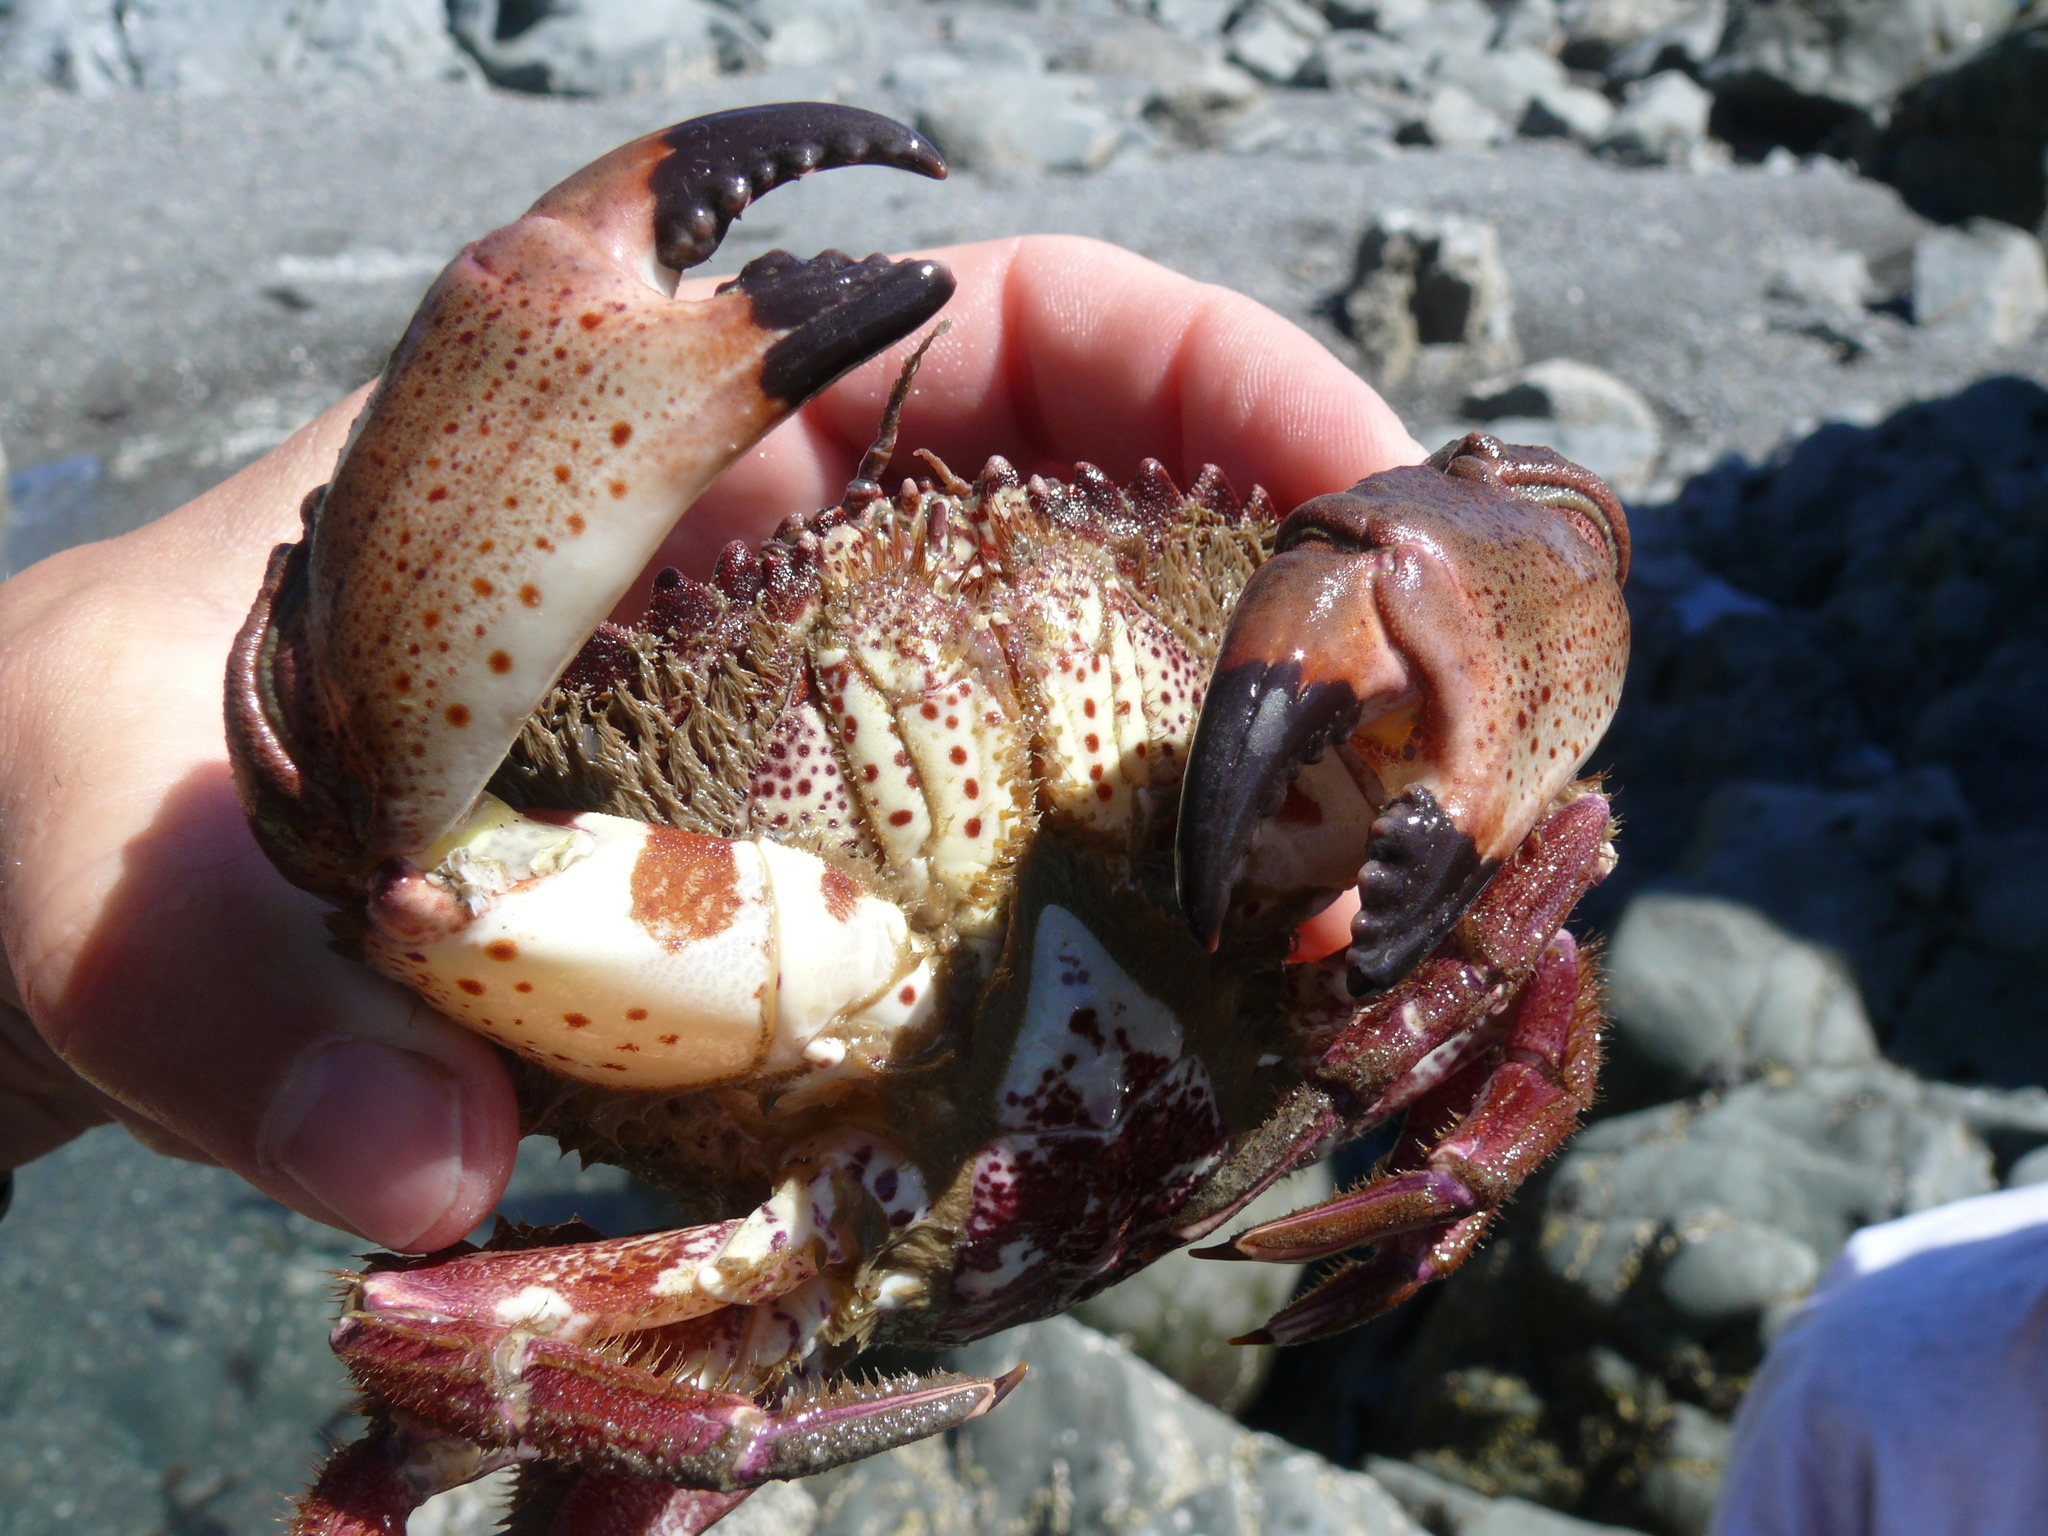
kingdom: Animalia
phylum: Arthropoda
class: Malacostraca
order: Decapoda
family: Cancridae
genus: Romaleon
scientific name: Romaleon antennarium
